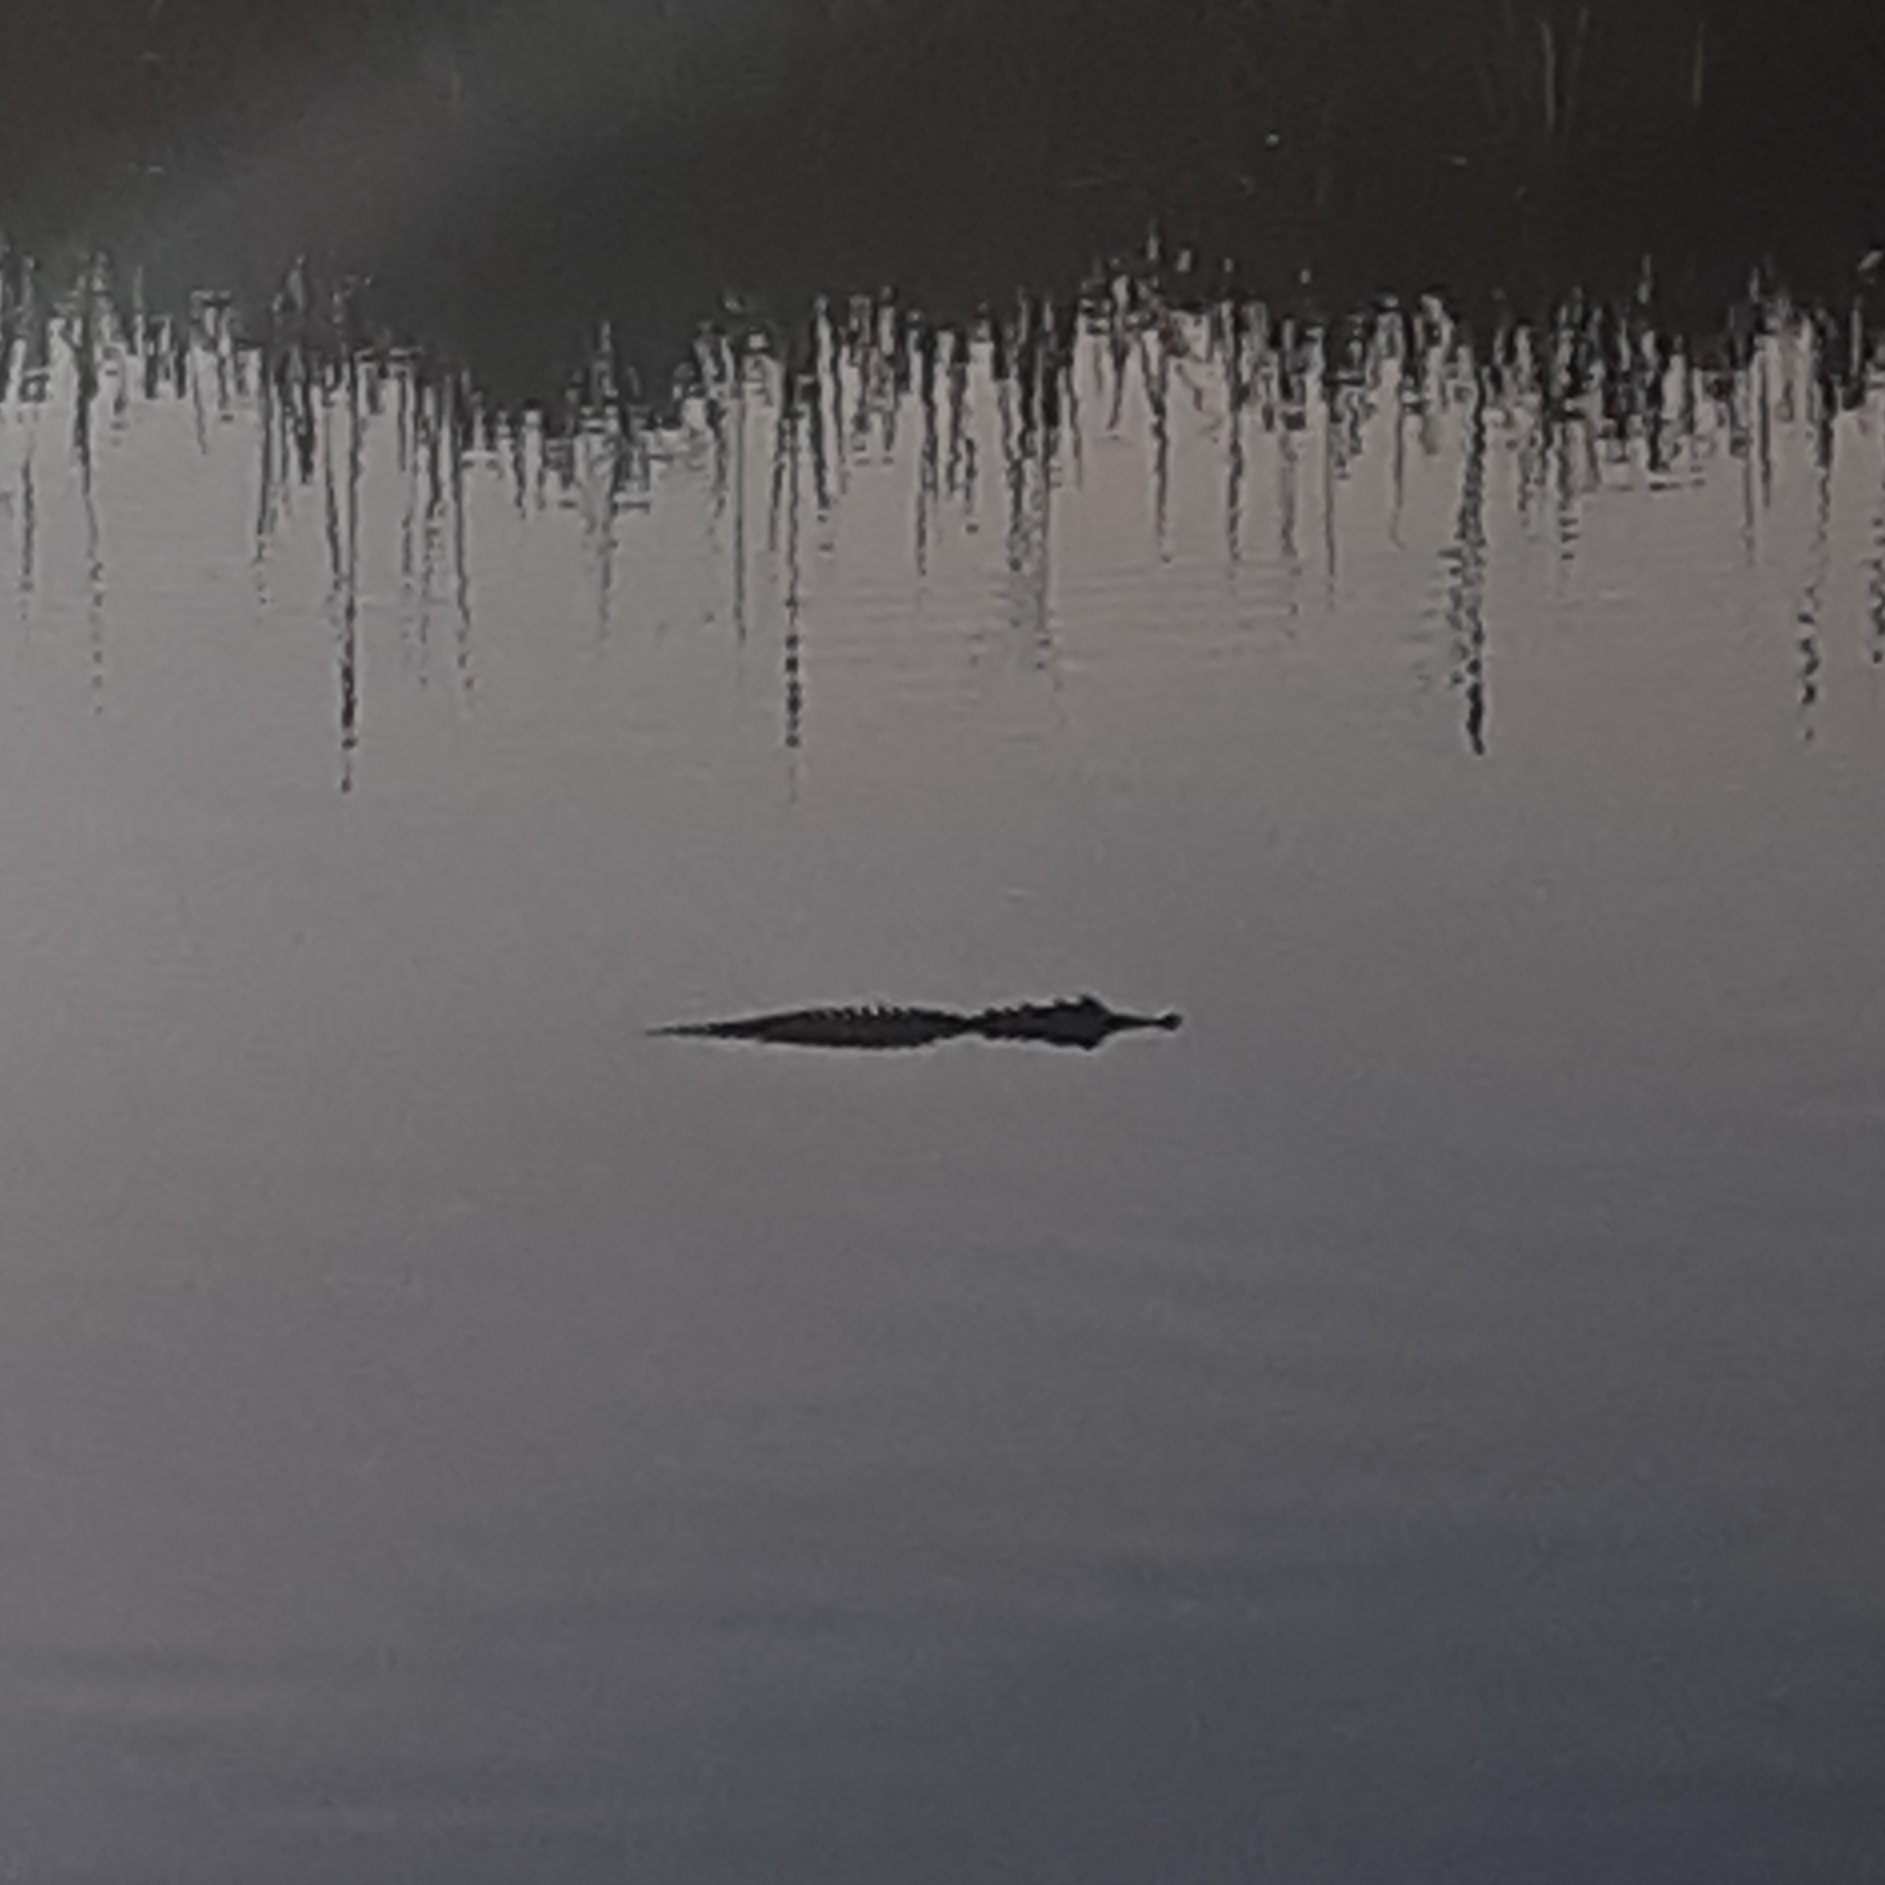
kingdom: Animalia
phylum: Chordata
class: Crocodylia
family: Alligatoridae
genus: Alligator
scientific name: Alligator mississippiensis
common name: American alligator
